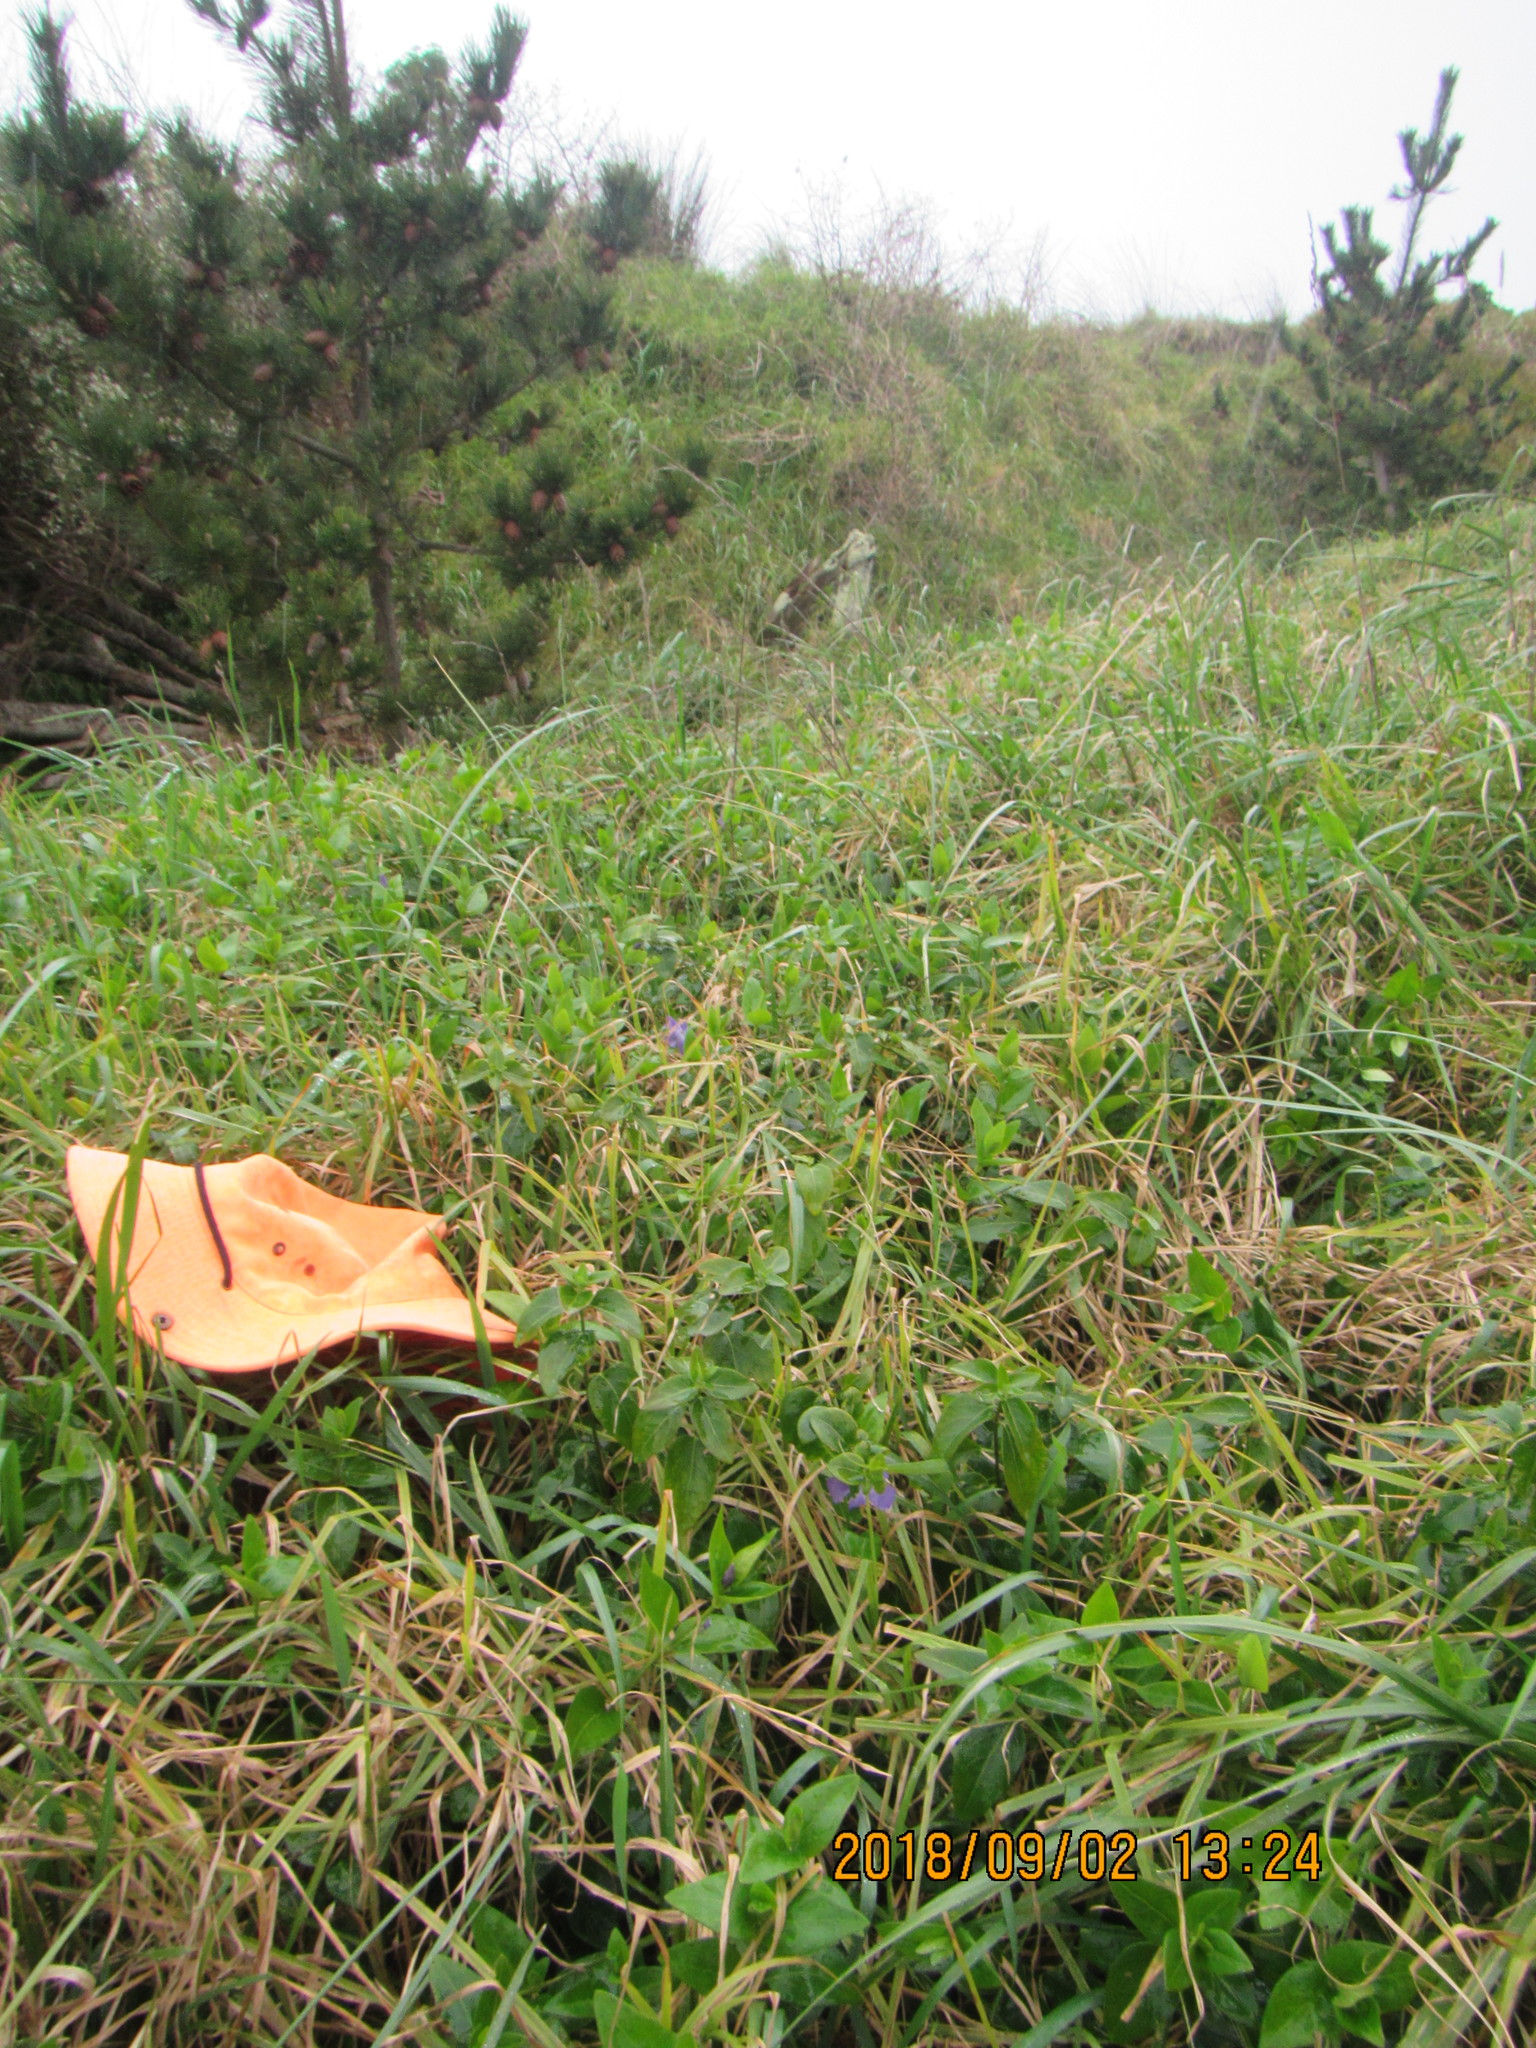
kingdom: Plantae
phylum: Tracheophyta
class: Magnoliopsida
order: Gentianales
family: Apocynaceae
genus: Vinca
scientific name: Vinca major
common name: Greater periwinkle
